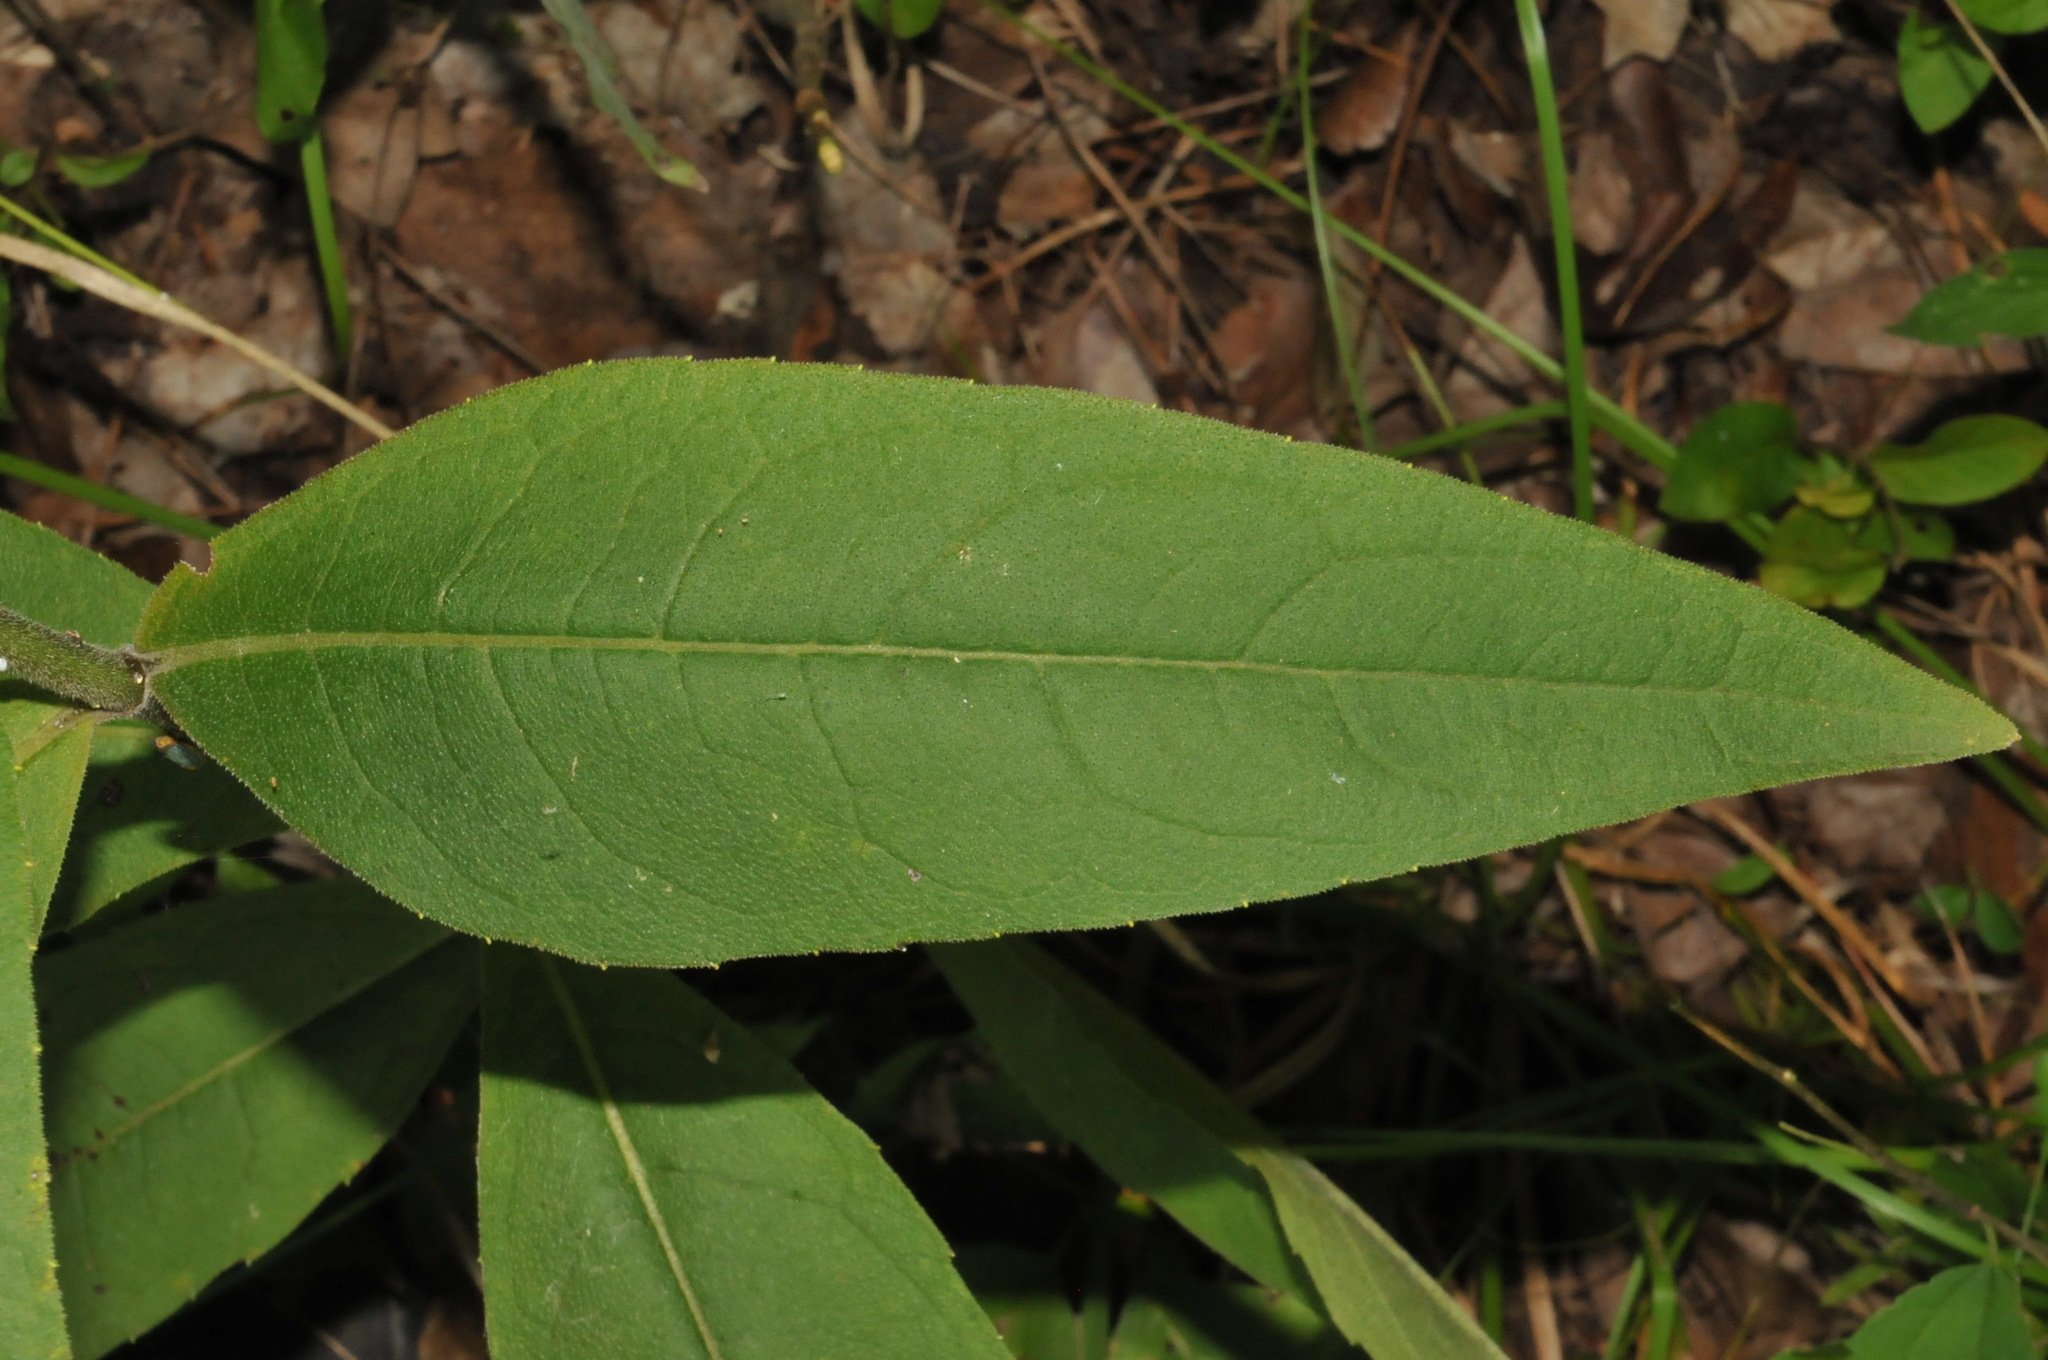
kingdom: Plantae
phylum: Tracheophyta
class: Magnoliopsida
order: Asterales
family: Asteraceae
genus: Silphium
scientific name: Silphium integrifolium
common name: Whole-leaf rosinweed
